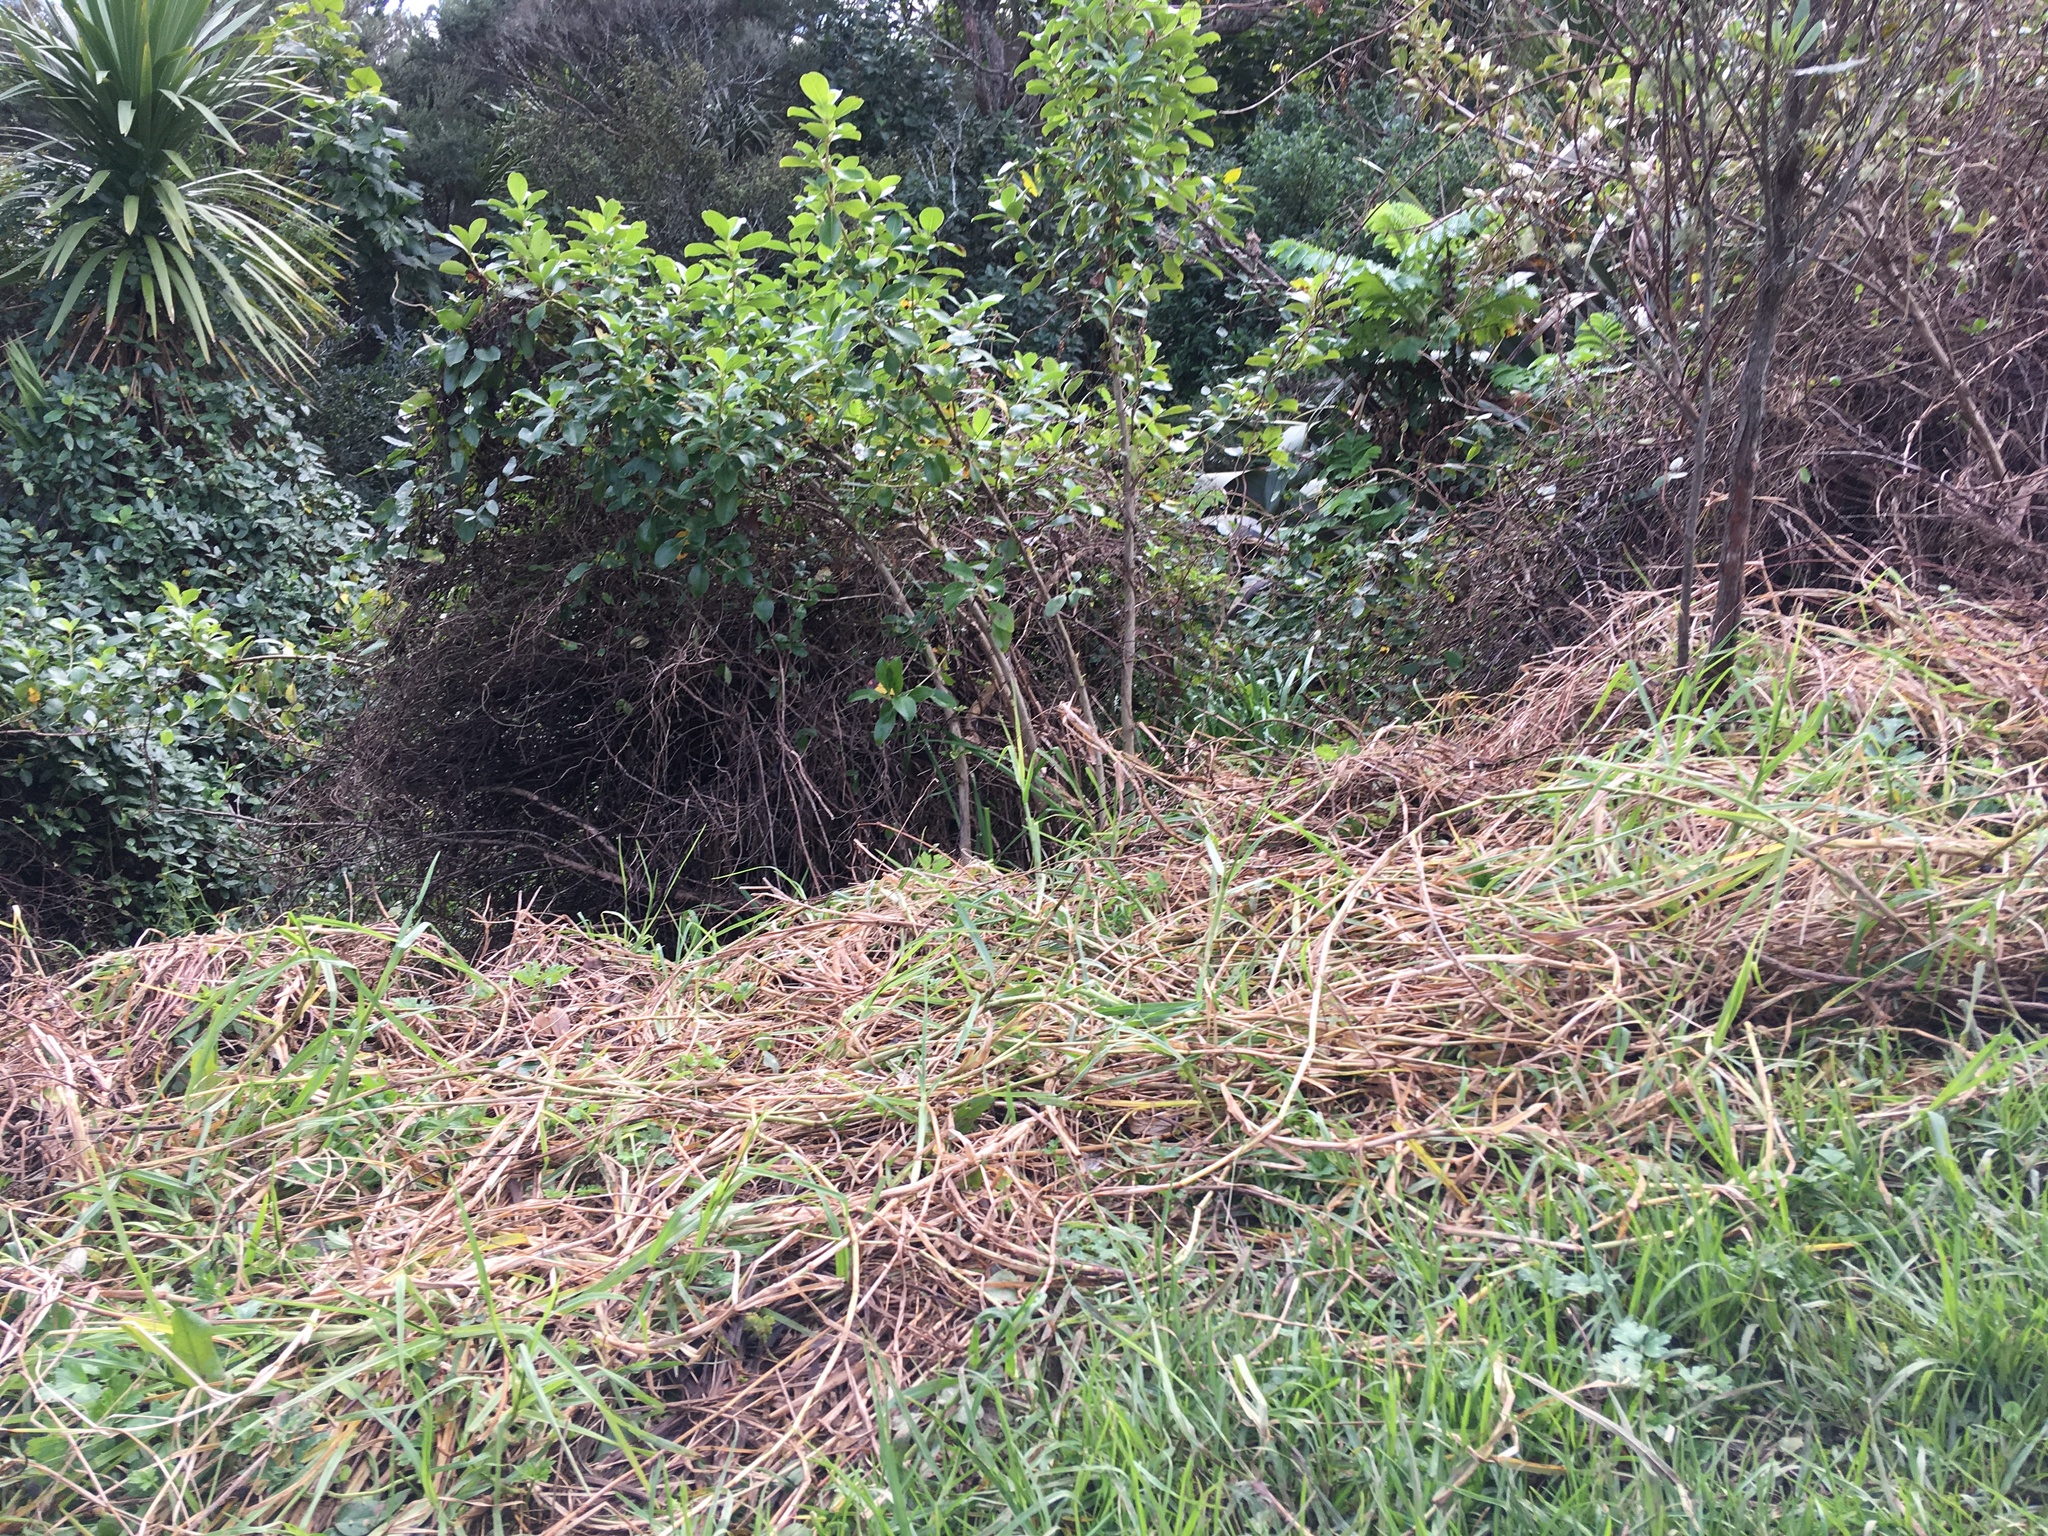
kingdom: Plantae
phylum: Tracheophyta
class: Liliopsida
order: Poales
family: Poaceae
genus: Cenchrus
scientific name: Cenchrus clandestinus
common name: Kikuyugrass
